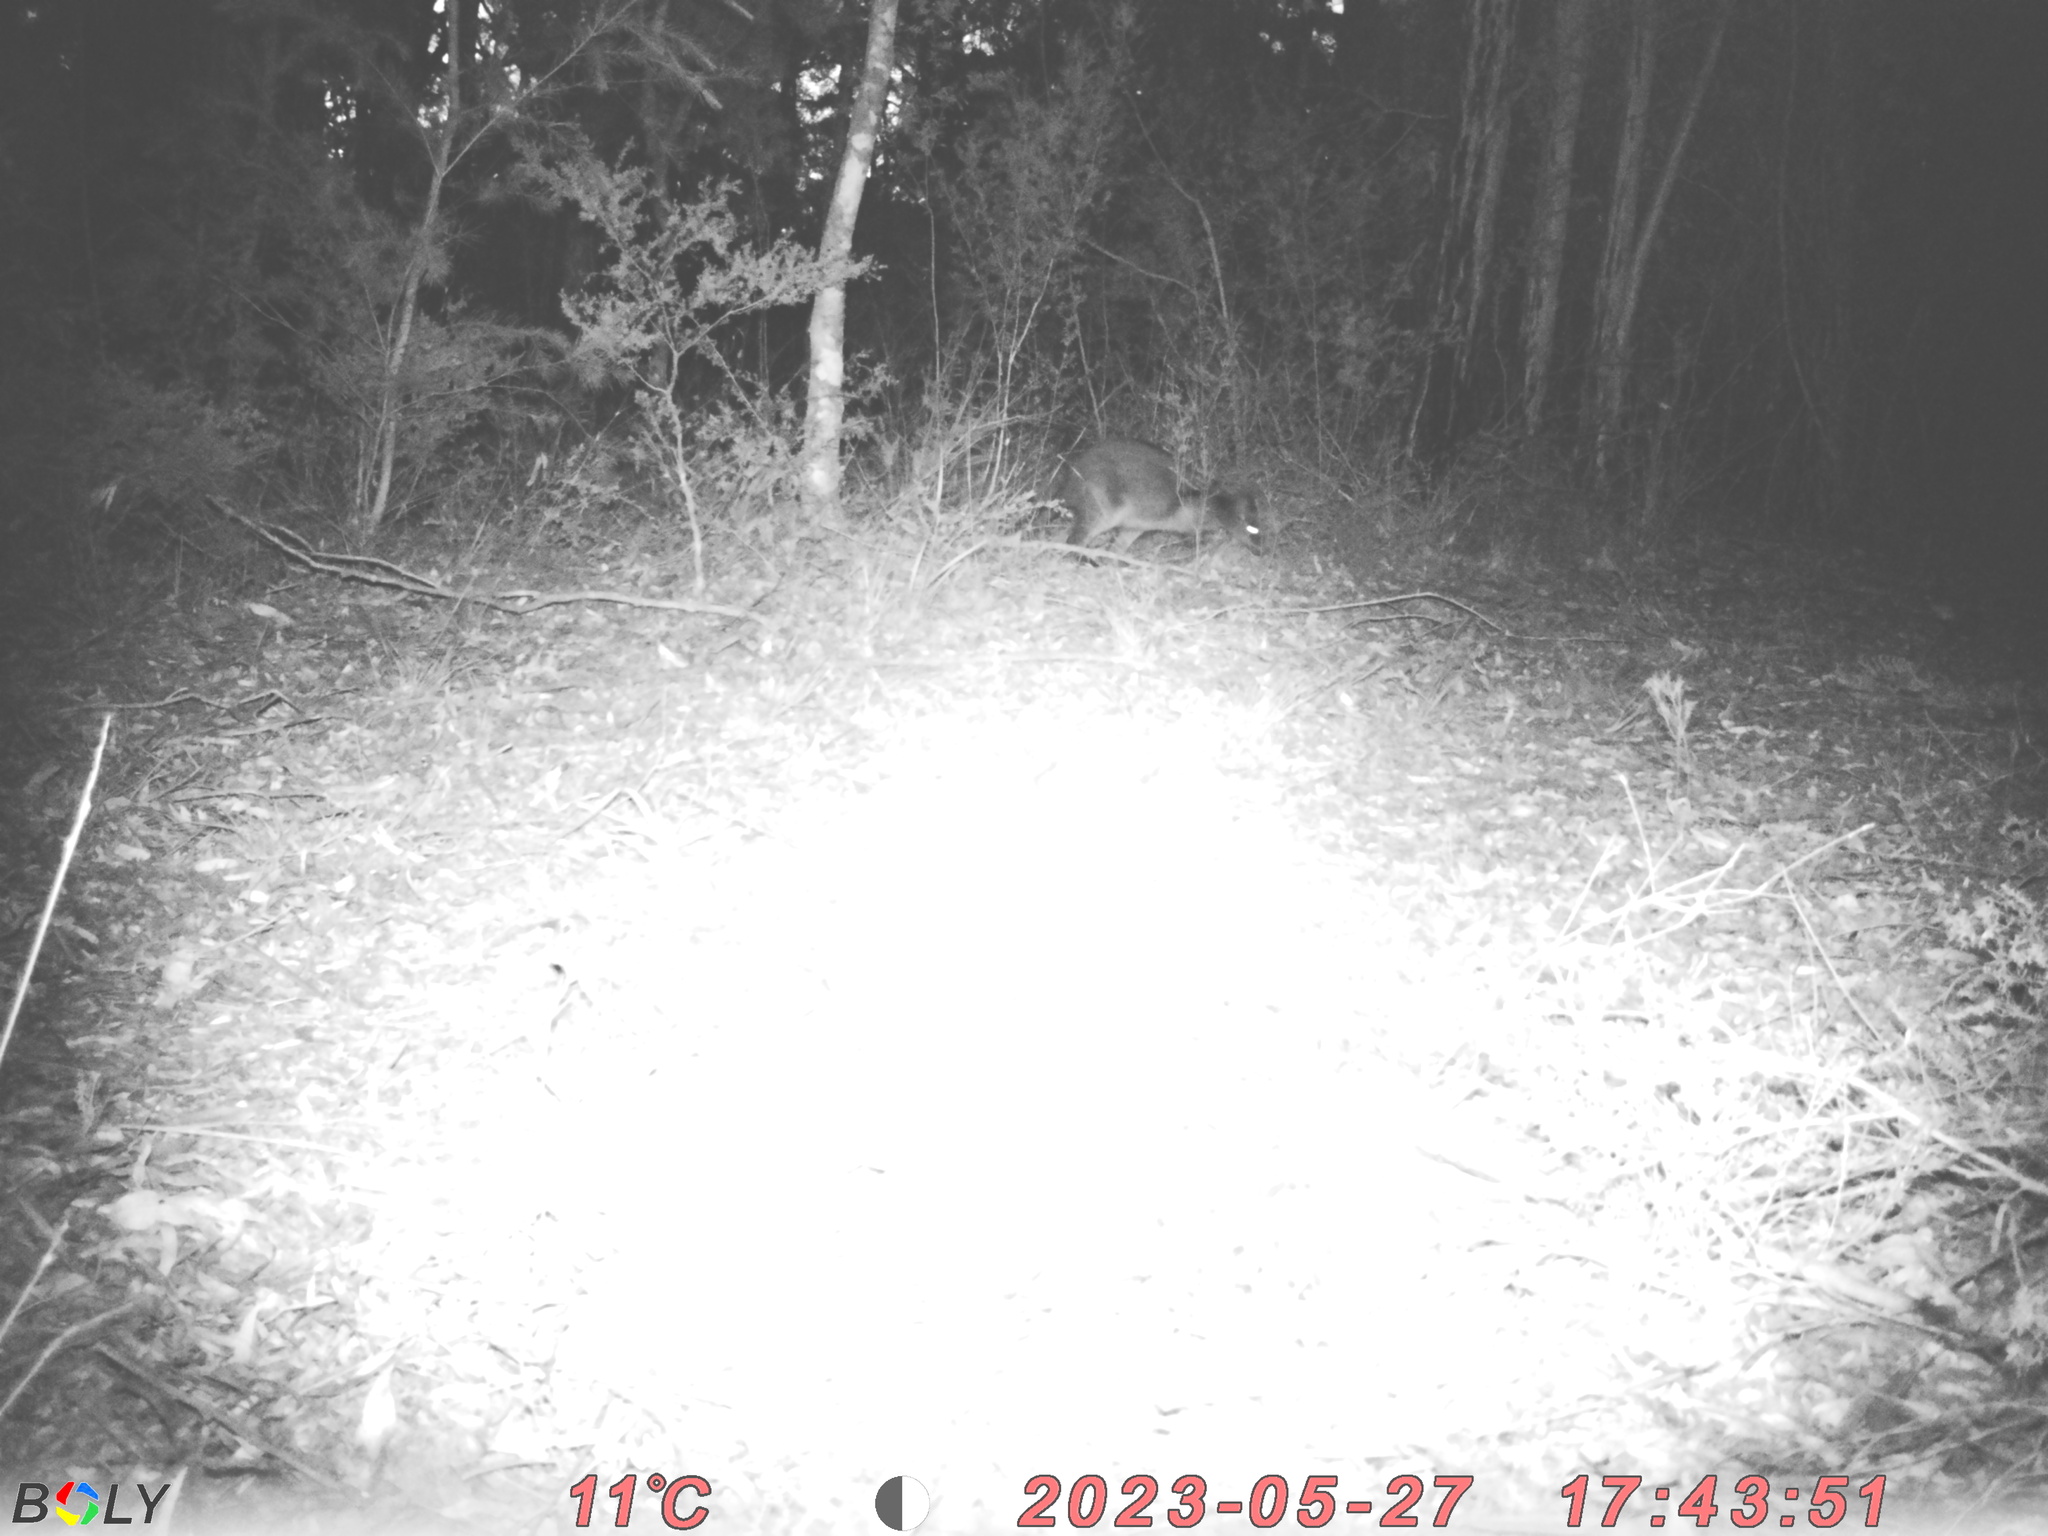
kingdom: Animalia
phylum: Chordata
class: Mammalia
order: Diprotodontia
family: Macropodidae
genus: Wallabia
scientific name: Wallabia bicolor
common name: Swamp wallaby
